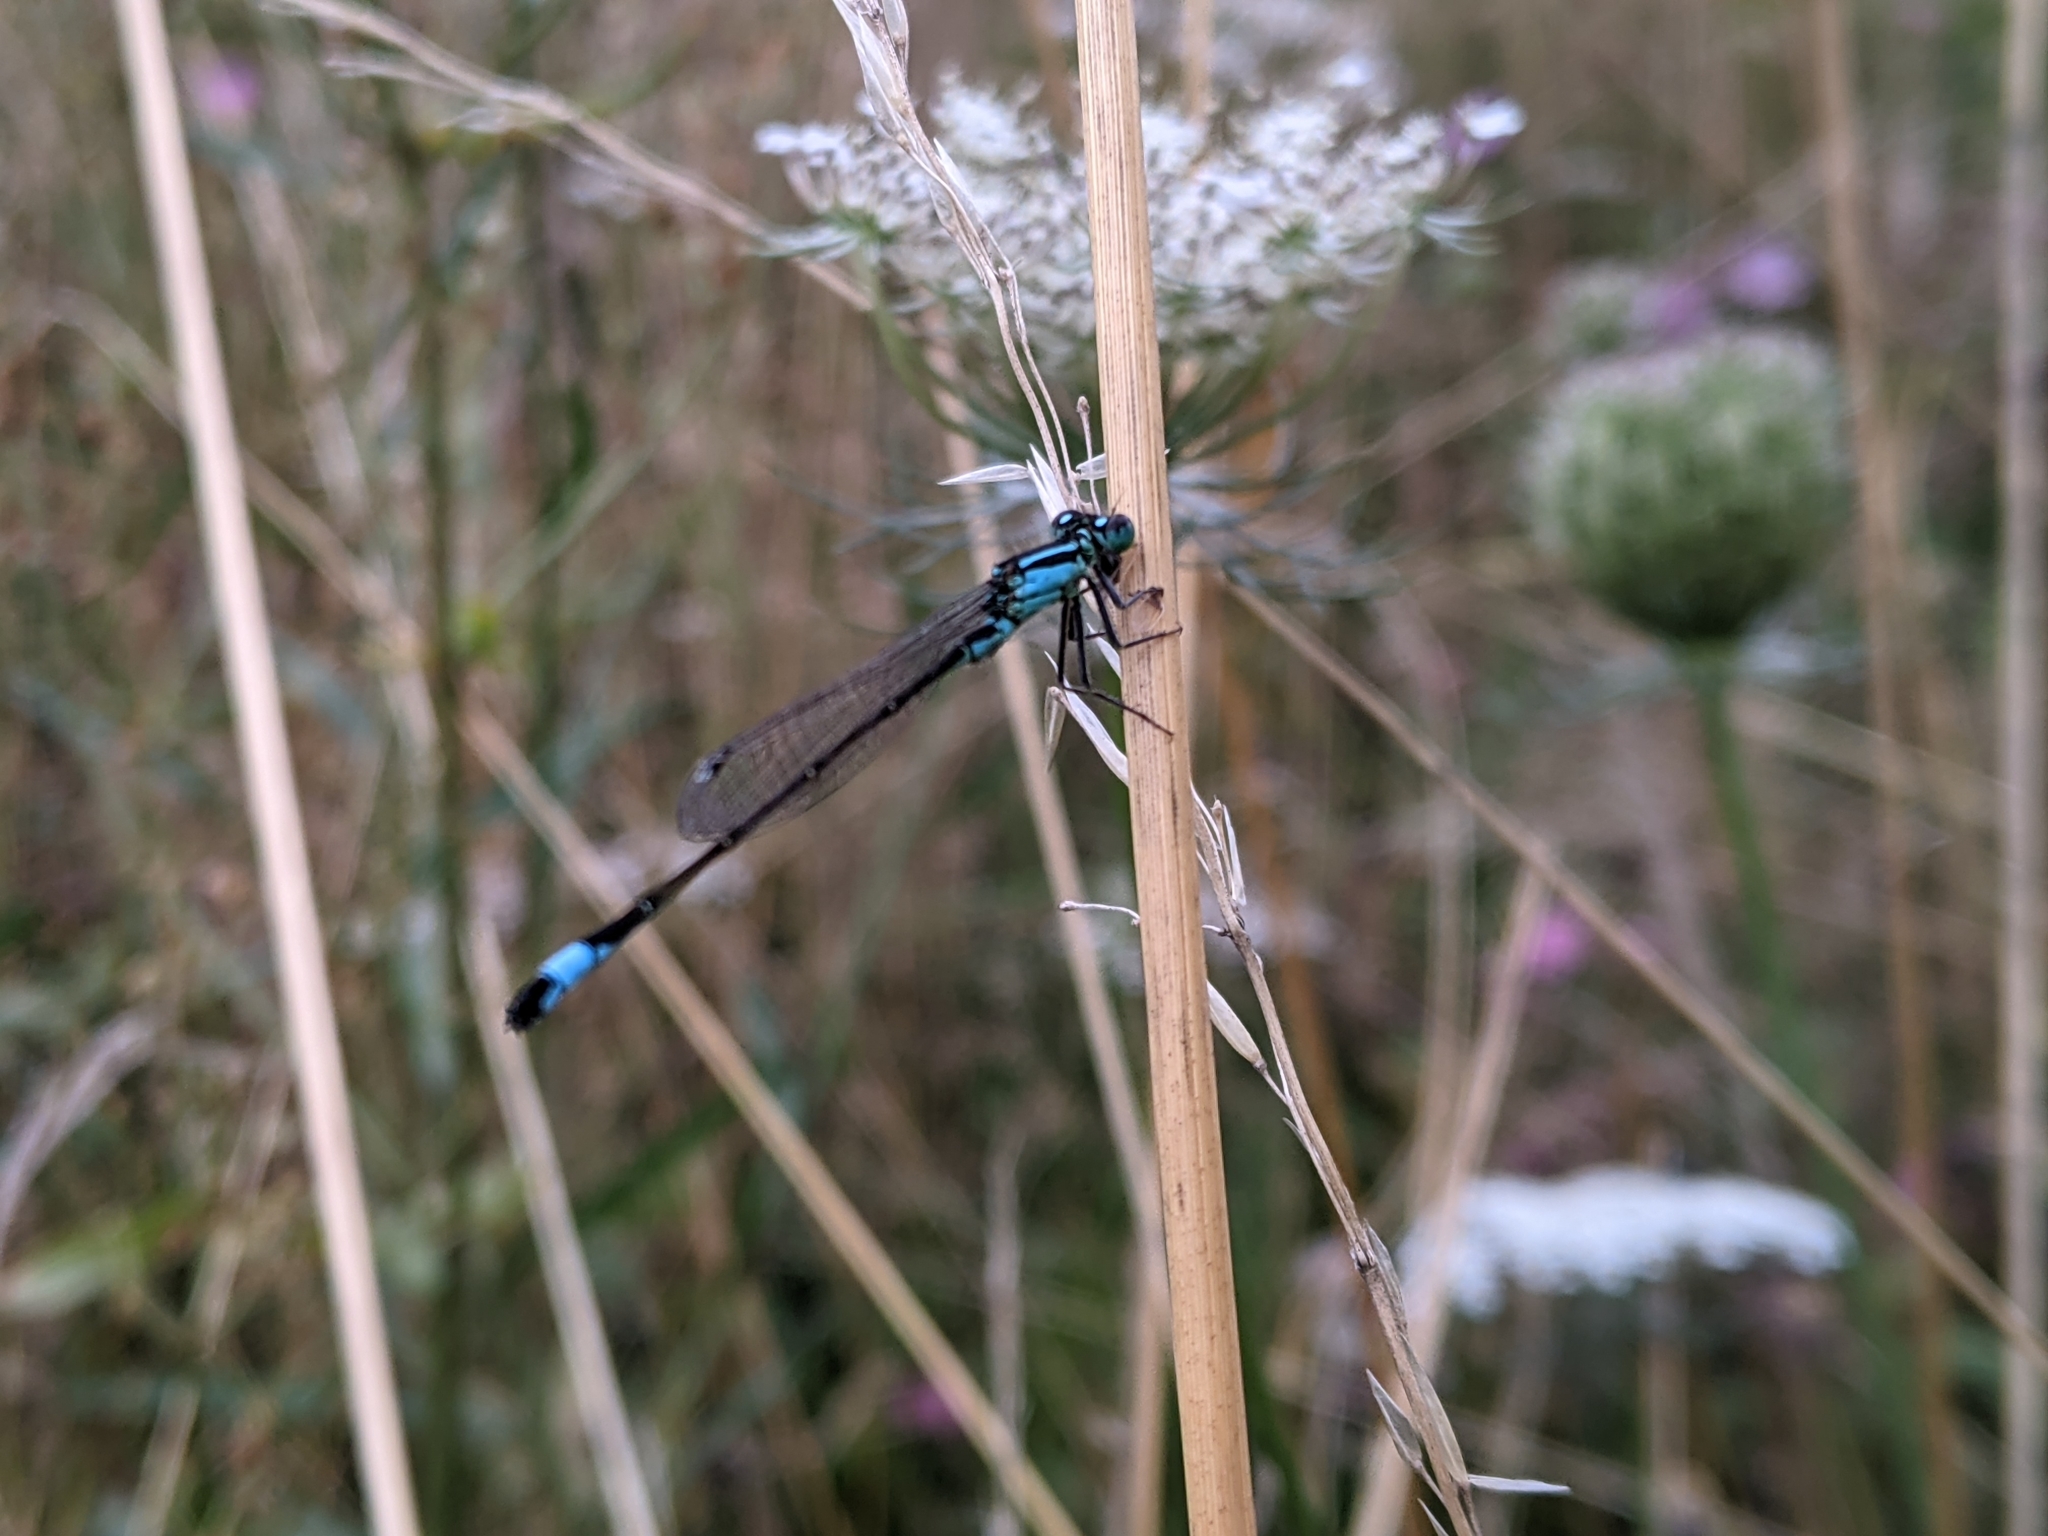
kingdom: Animalia
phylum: Arthropoda
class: Insecta
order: Odonata
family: Coenagrionidae
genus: Ischnura
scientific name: Ischnura elegans
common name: Blue-tailed damselfly
